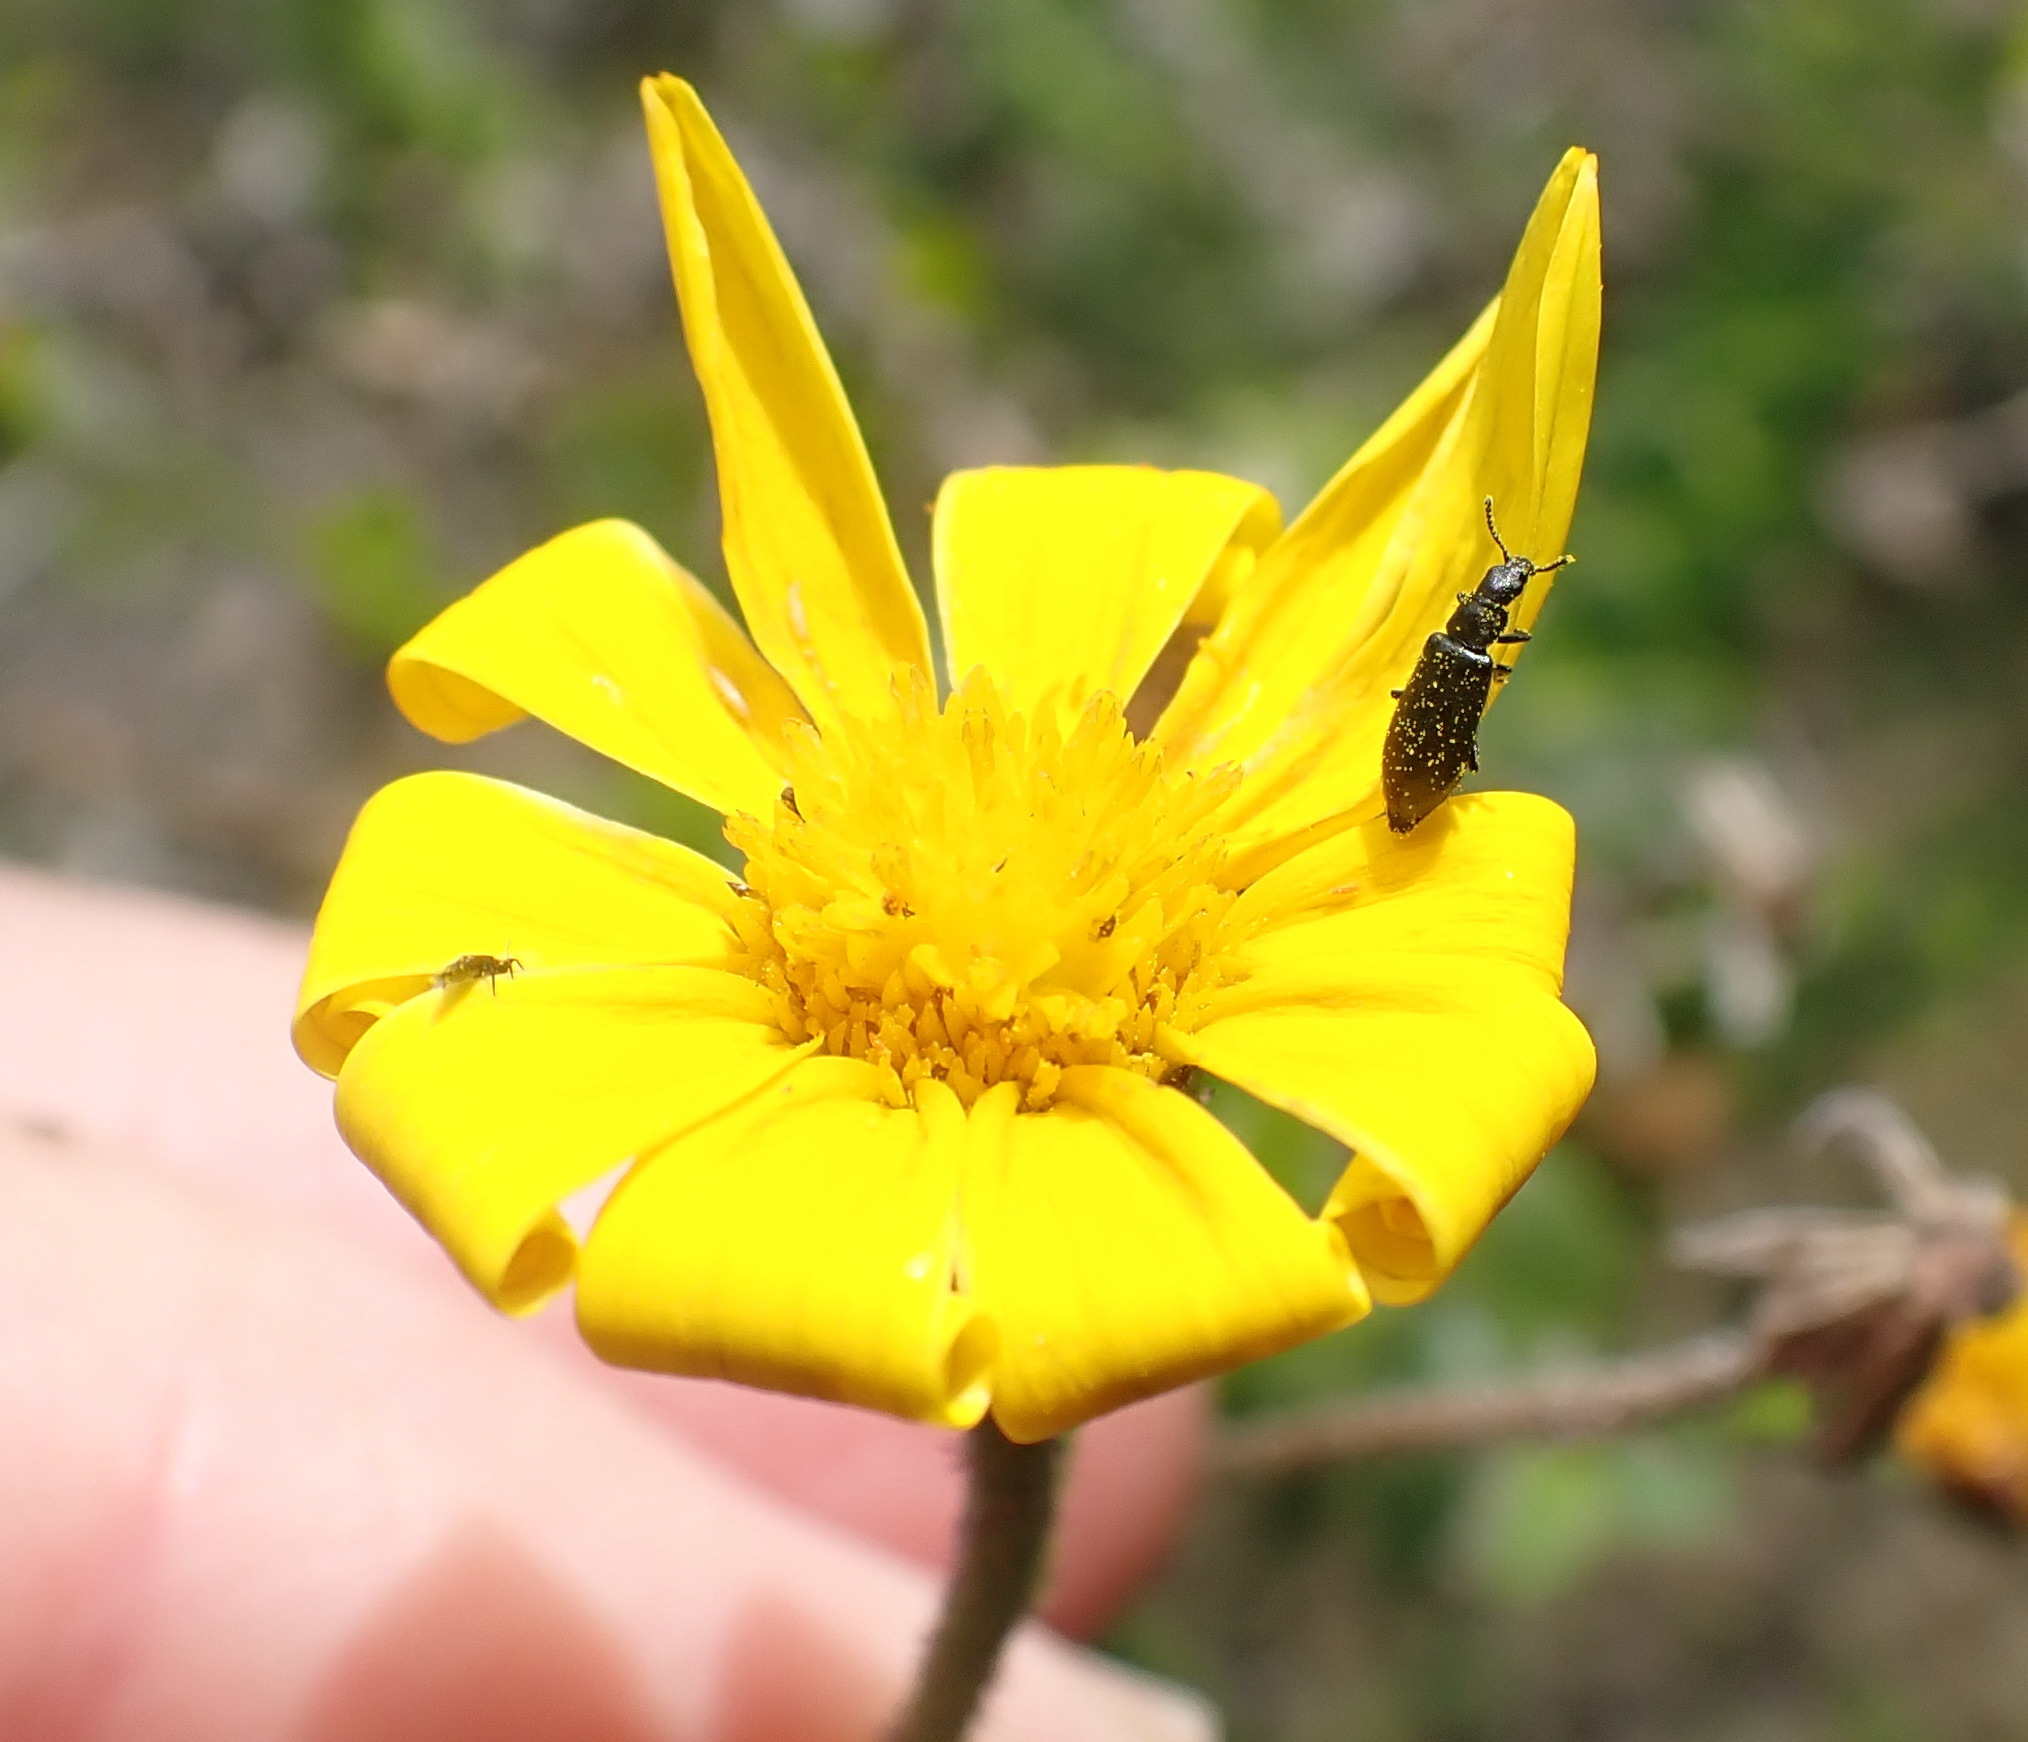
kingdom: Plantae
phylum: Tracheophyta
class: Magnoliopsida
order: Asterales
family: Asteraceae
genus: Osteospermum
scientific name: Osteospermum polygaloides
